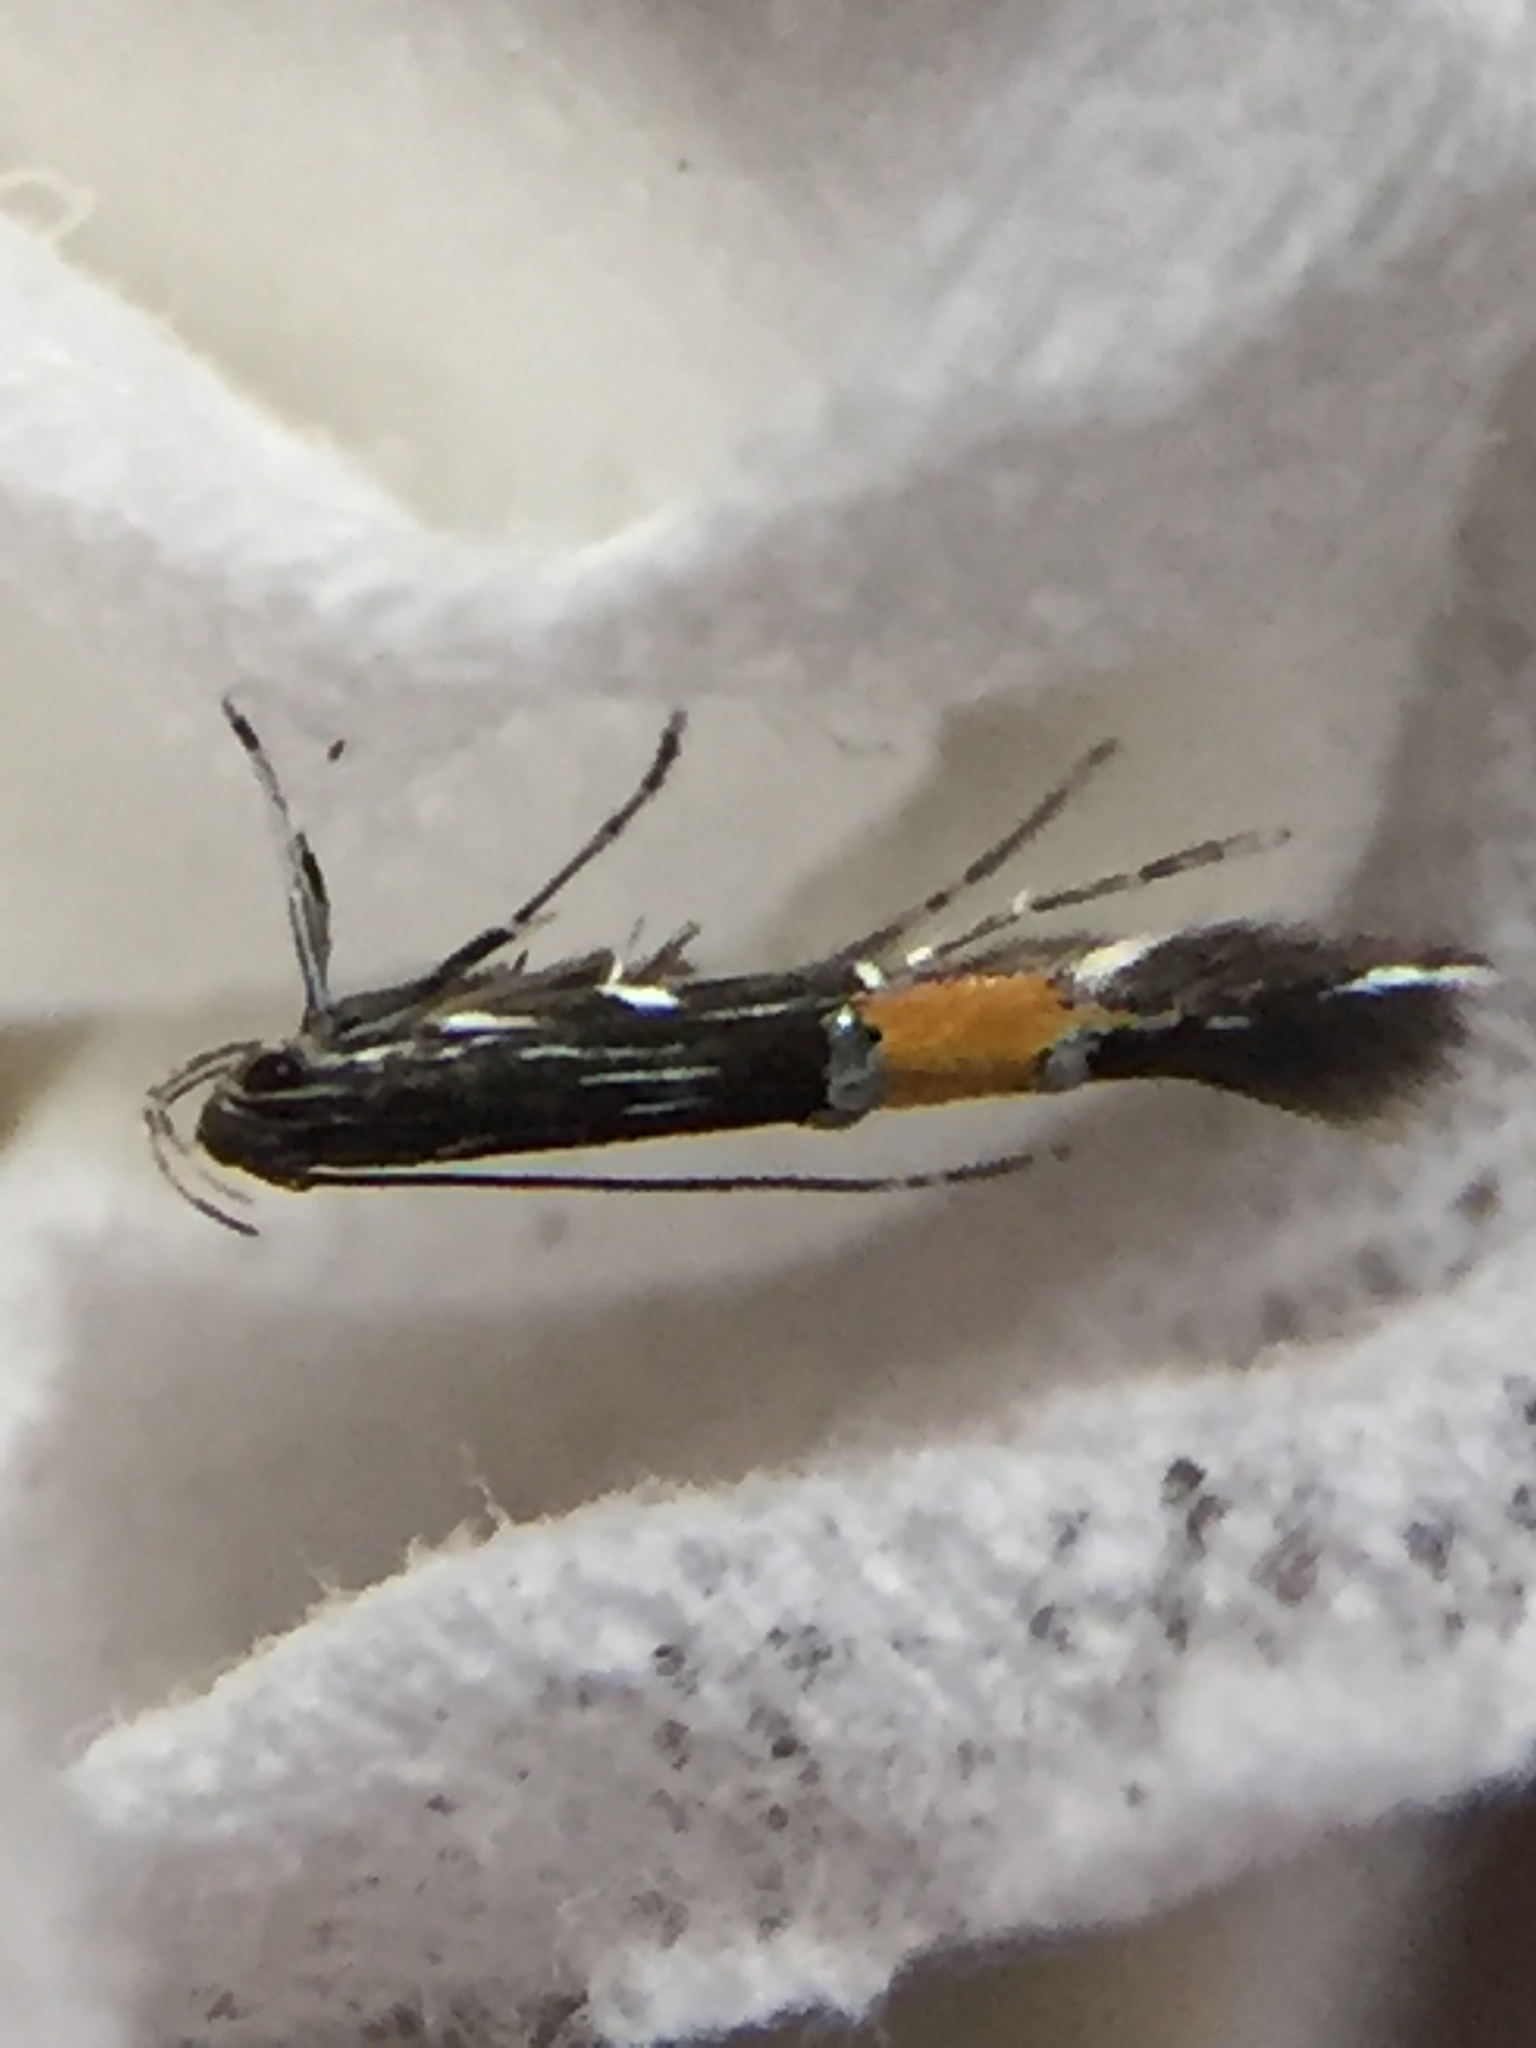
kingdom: Animalia
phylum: Arthropoda
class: Insecta
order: Lepidoptera
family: Cosmopterigidae
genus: Cosmopterix
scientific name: Cosmopterix attenuatella
